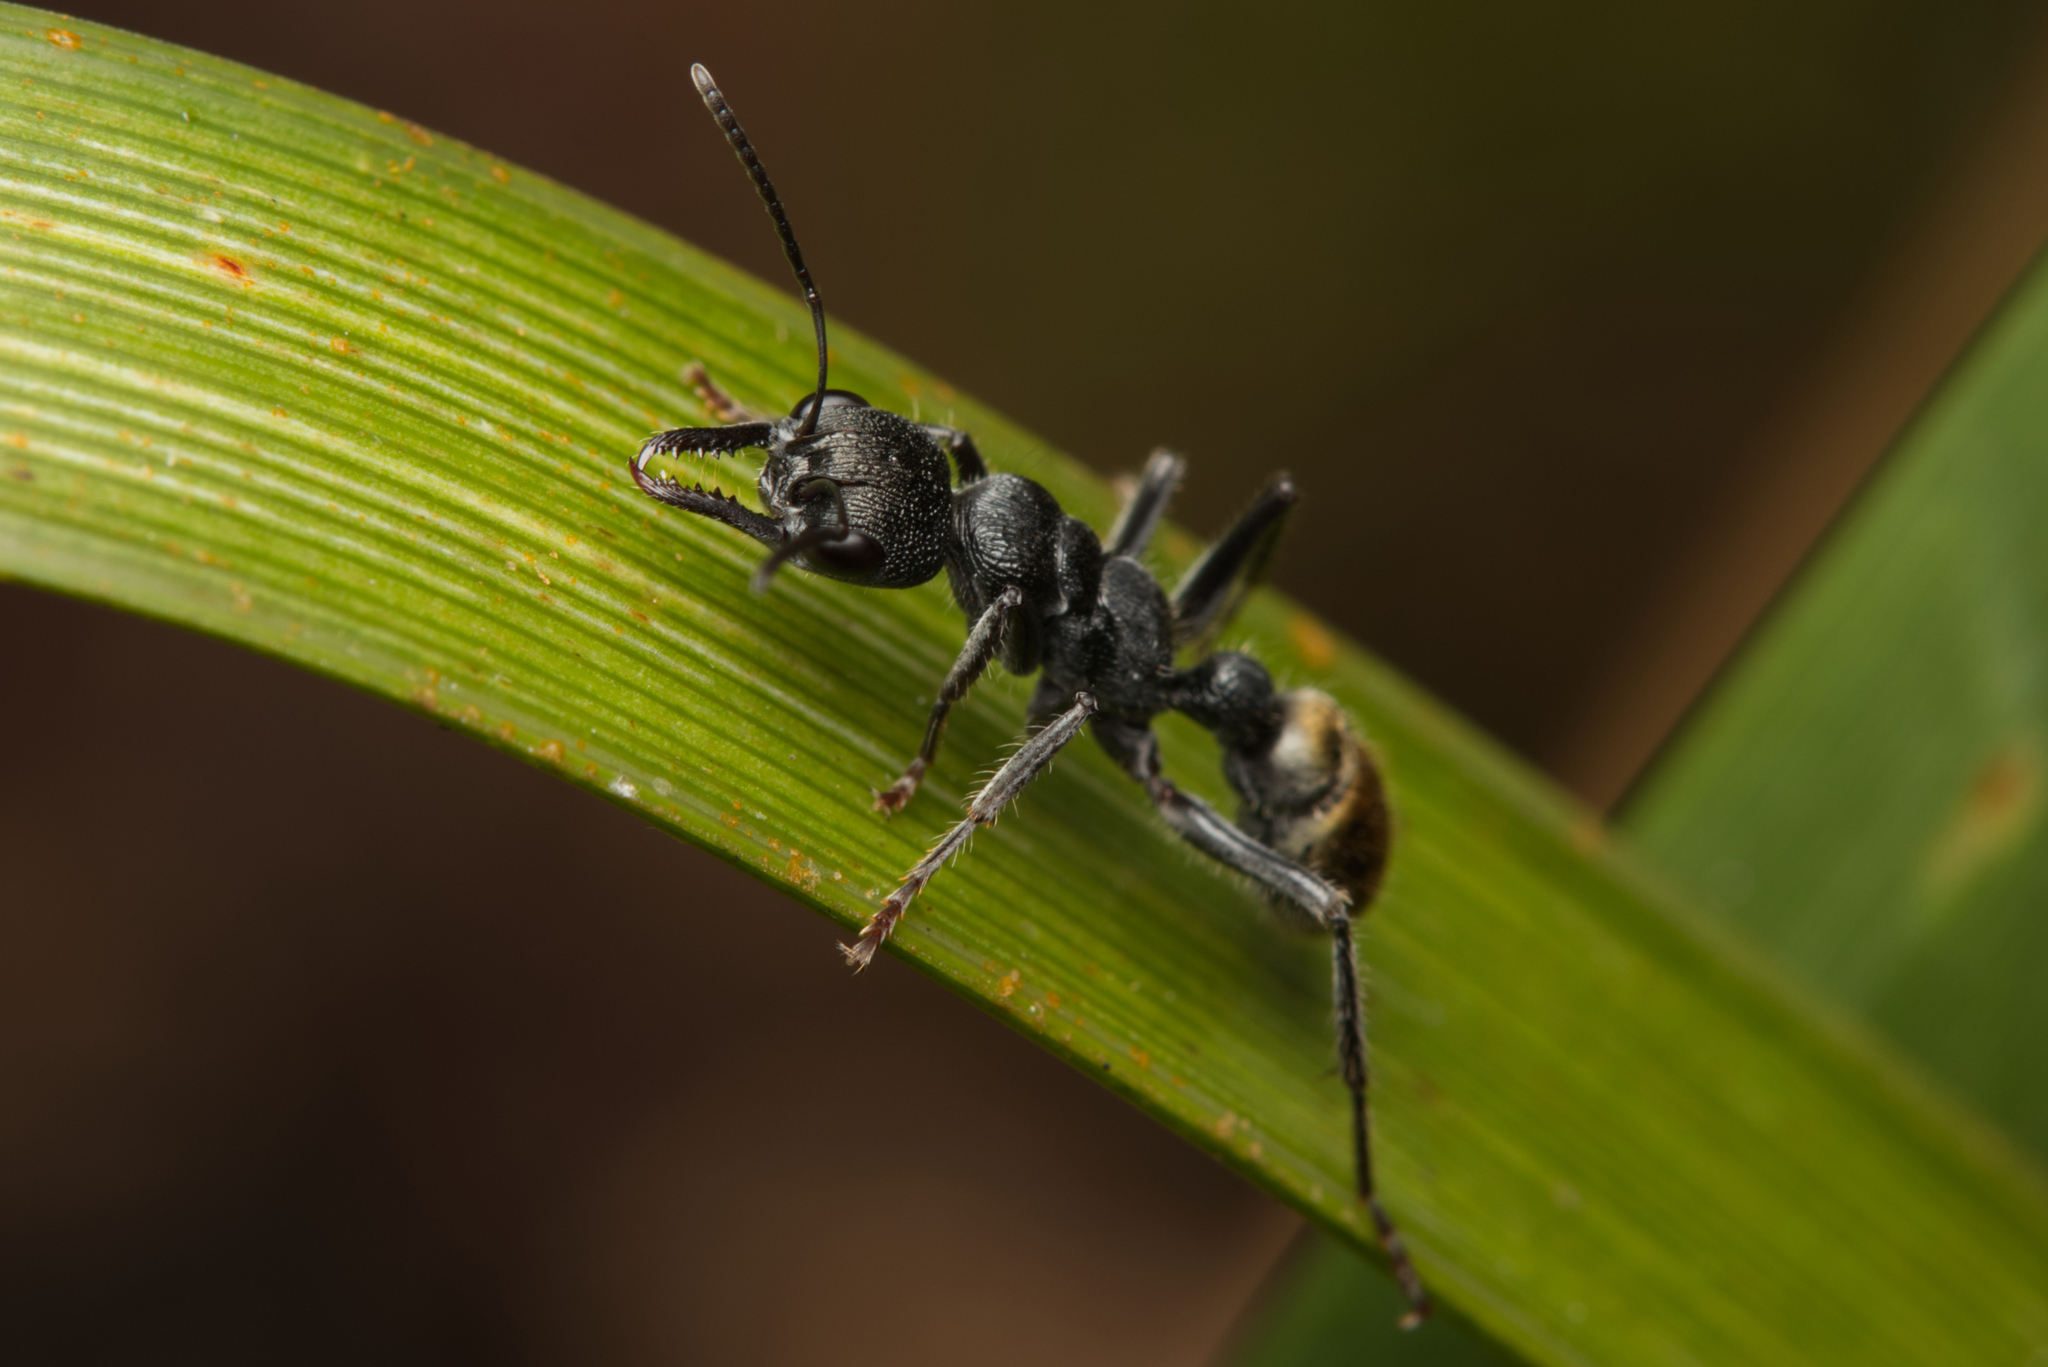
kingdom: Animalia
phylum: Arthropoda
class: Insecta
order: Hymenoptera
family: Formicidae
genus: Myrmecia
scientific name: Myrmecia queenslandica
